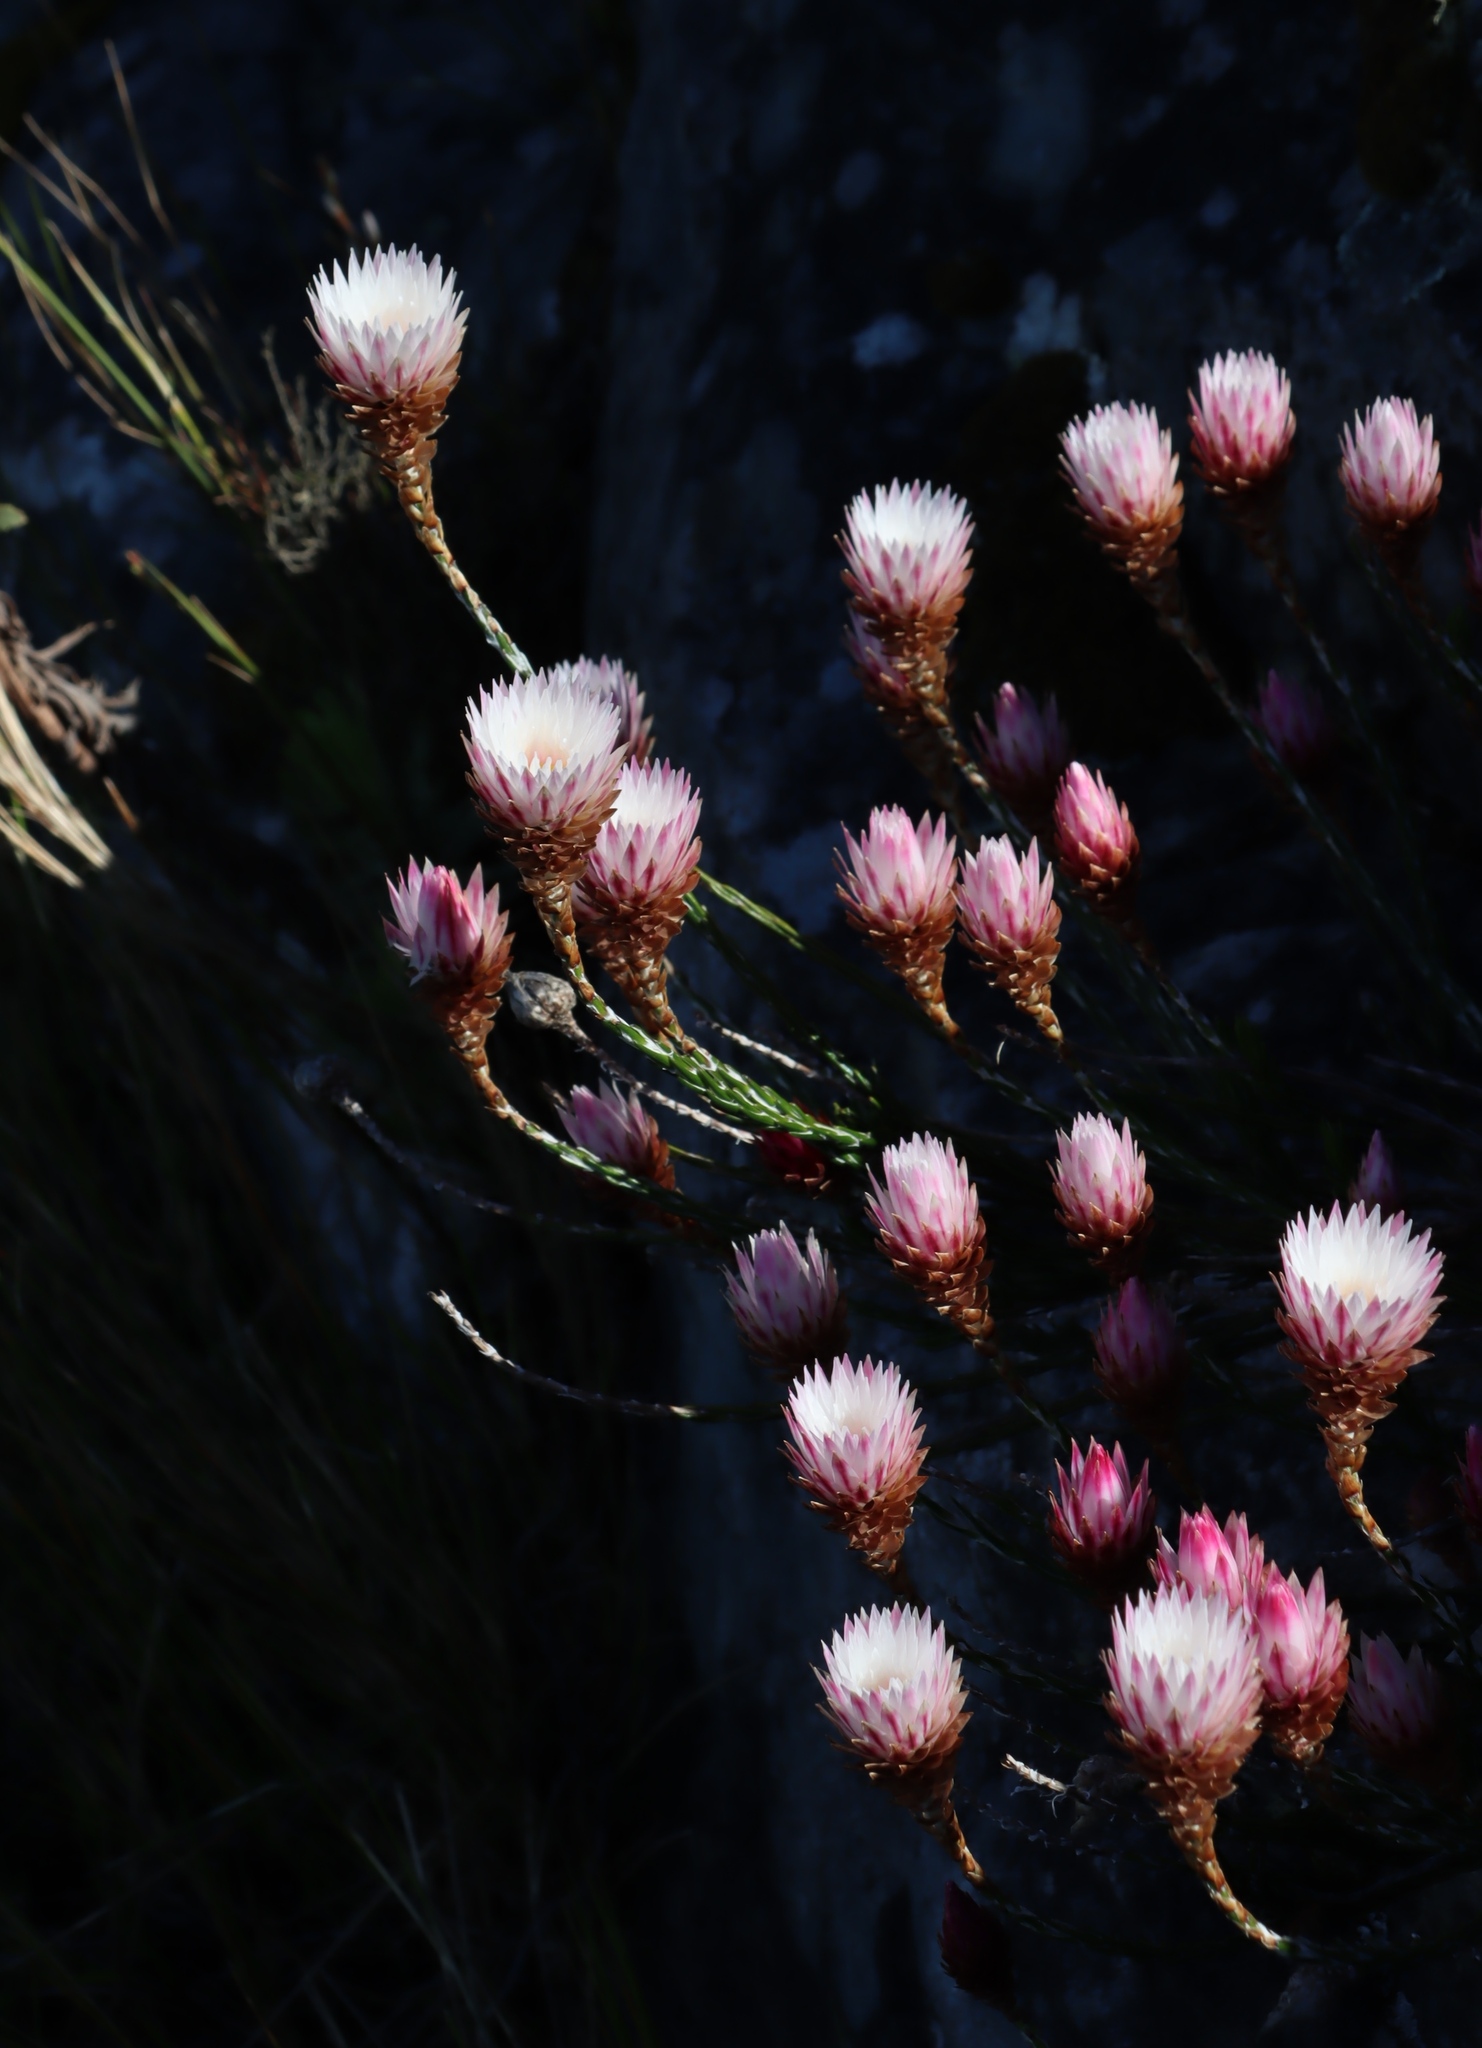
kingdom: Plantae
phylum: Tracheophyta
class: Magnoliopsida
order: Asterales
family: Asteraceae
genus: Edmondia
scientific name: Edmondia pinifolia
